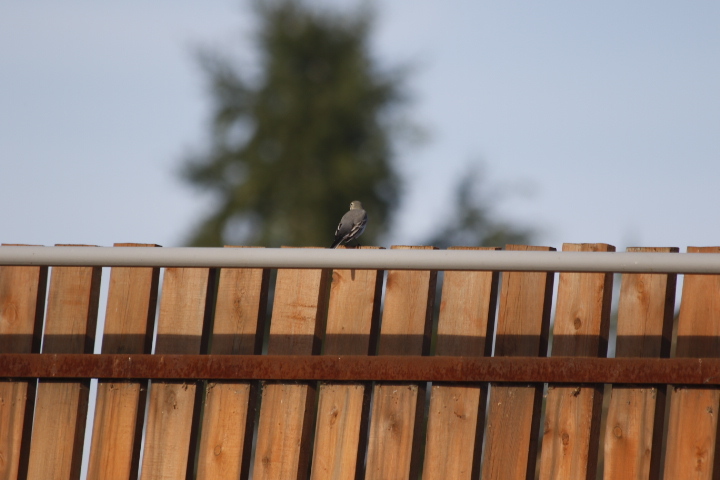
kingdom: Animalia
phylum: Chordata
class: Aves
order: Passeriformes
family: Motacillidae
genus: Motacilla
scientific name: Motacilla alba
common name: White wagtail
